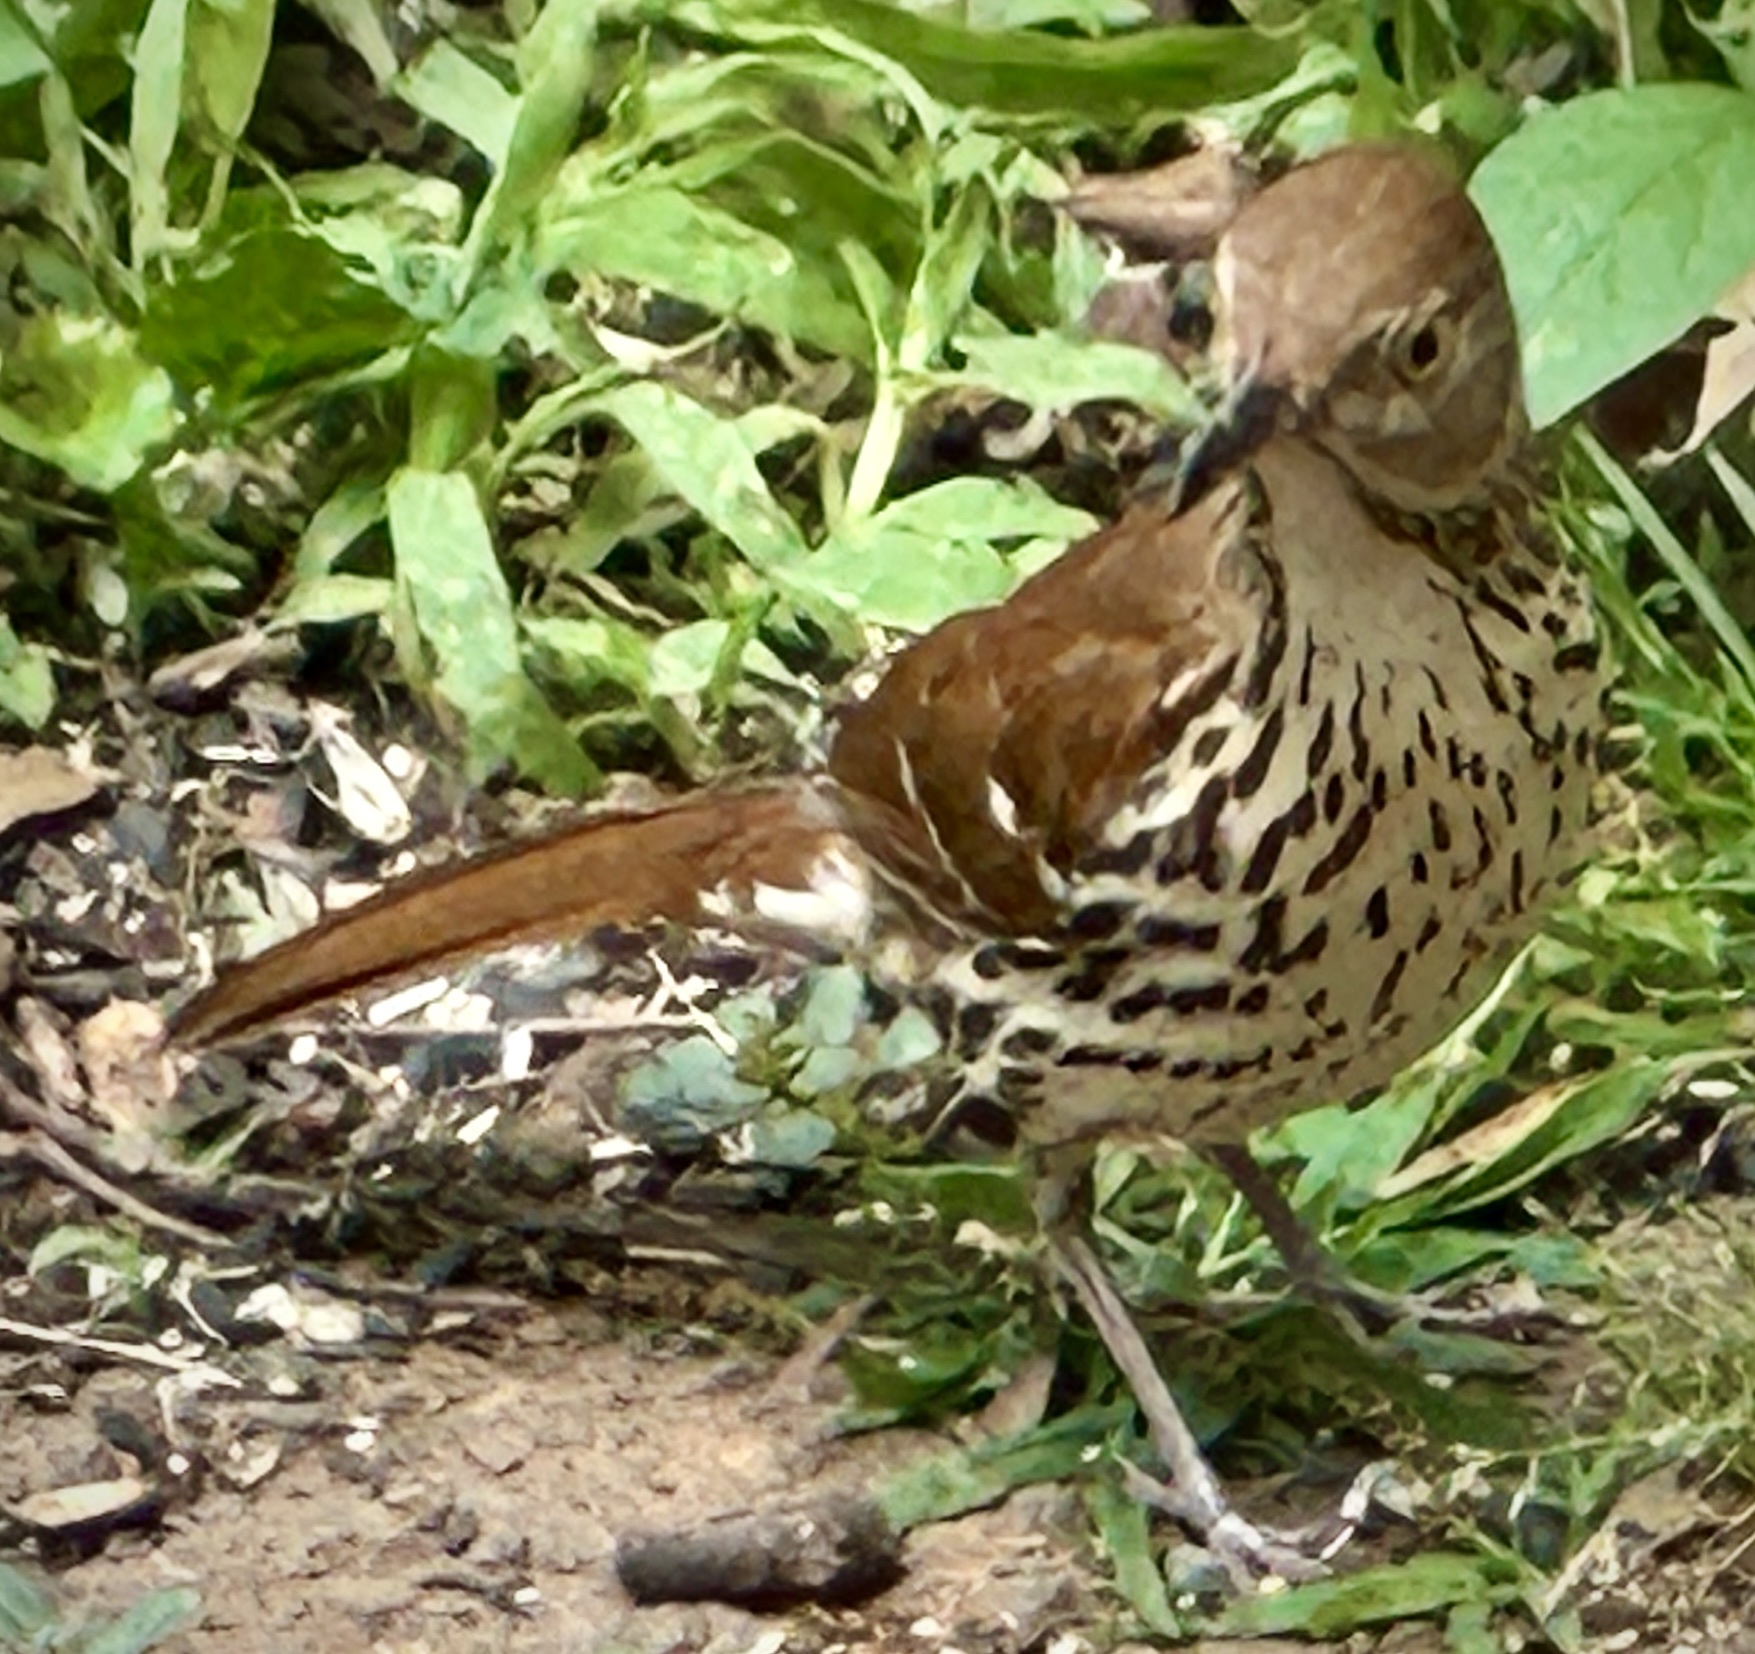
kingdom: Animalia
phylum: Chordata
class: Aves
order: Passeriformes
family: Mimidae
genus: Toxostoma
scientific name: Toxostoma rufum
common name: Brown thrasher
